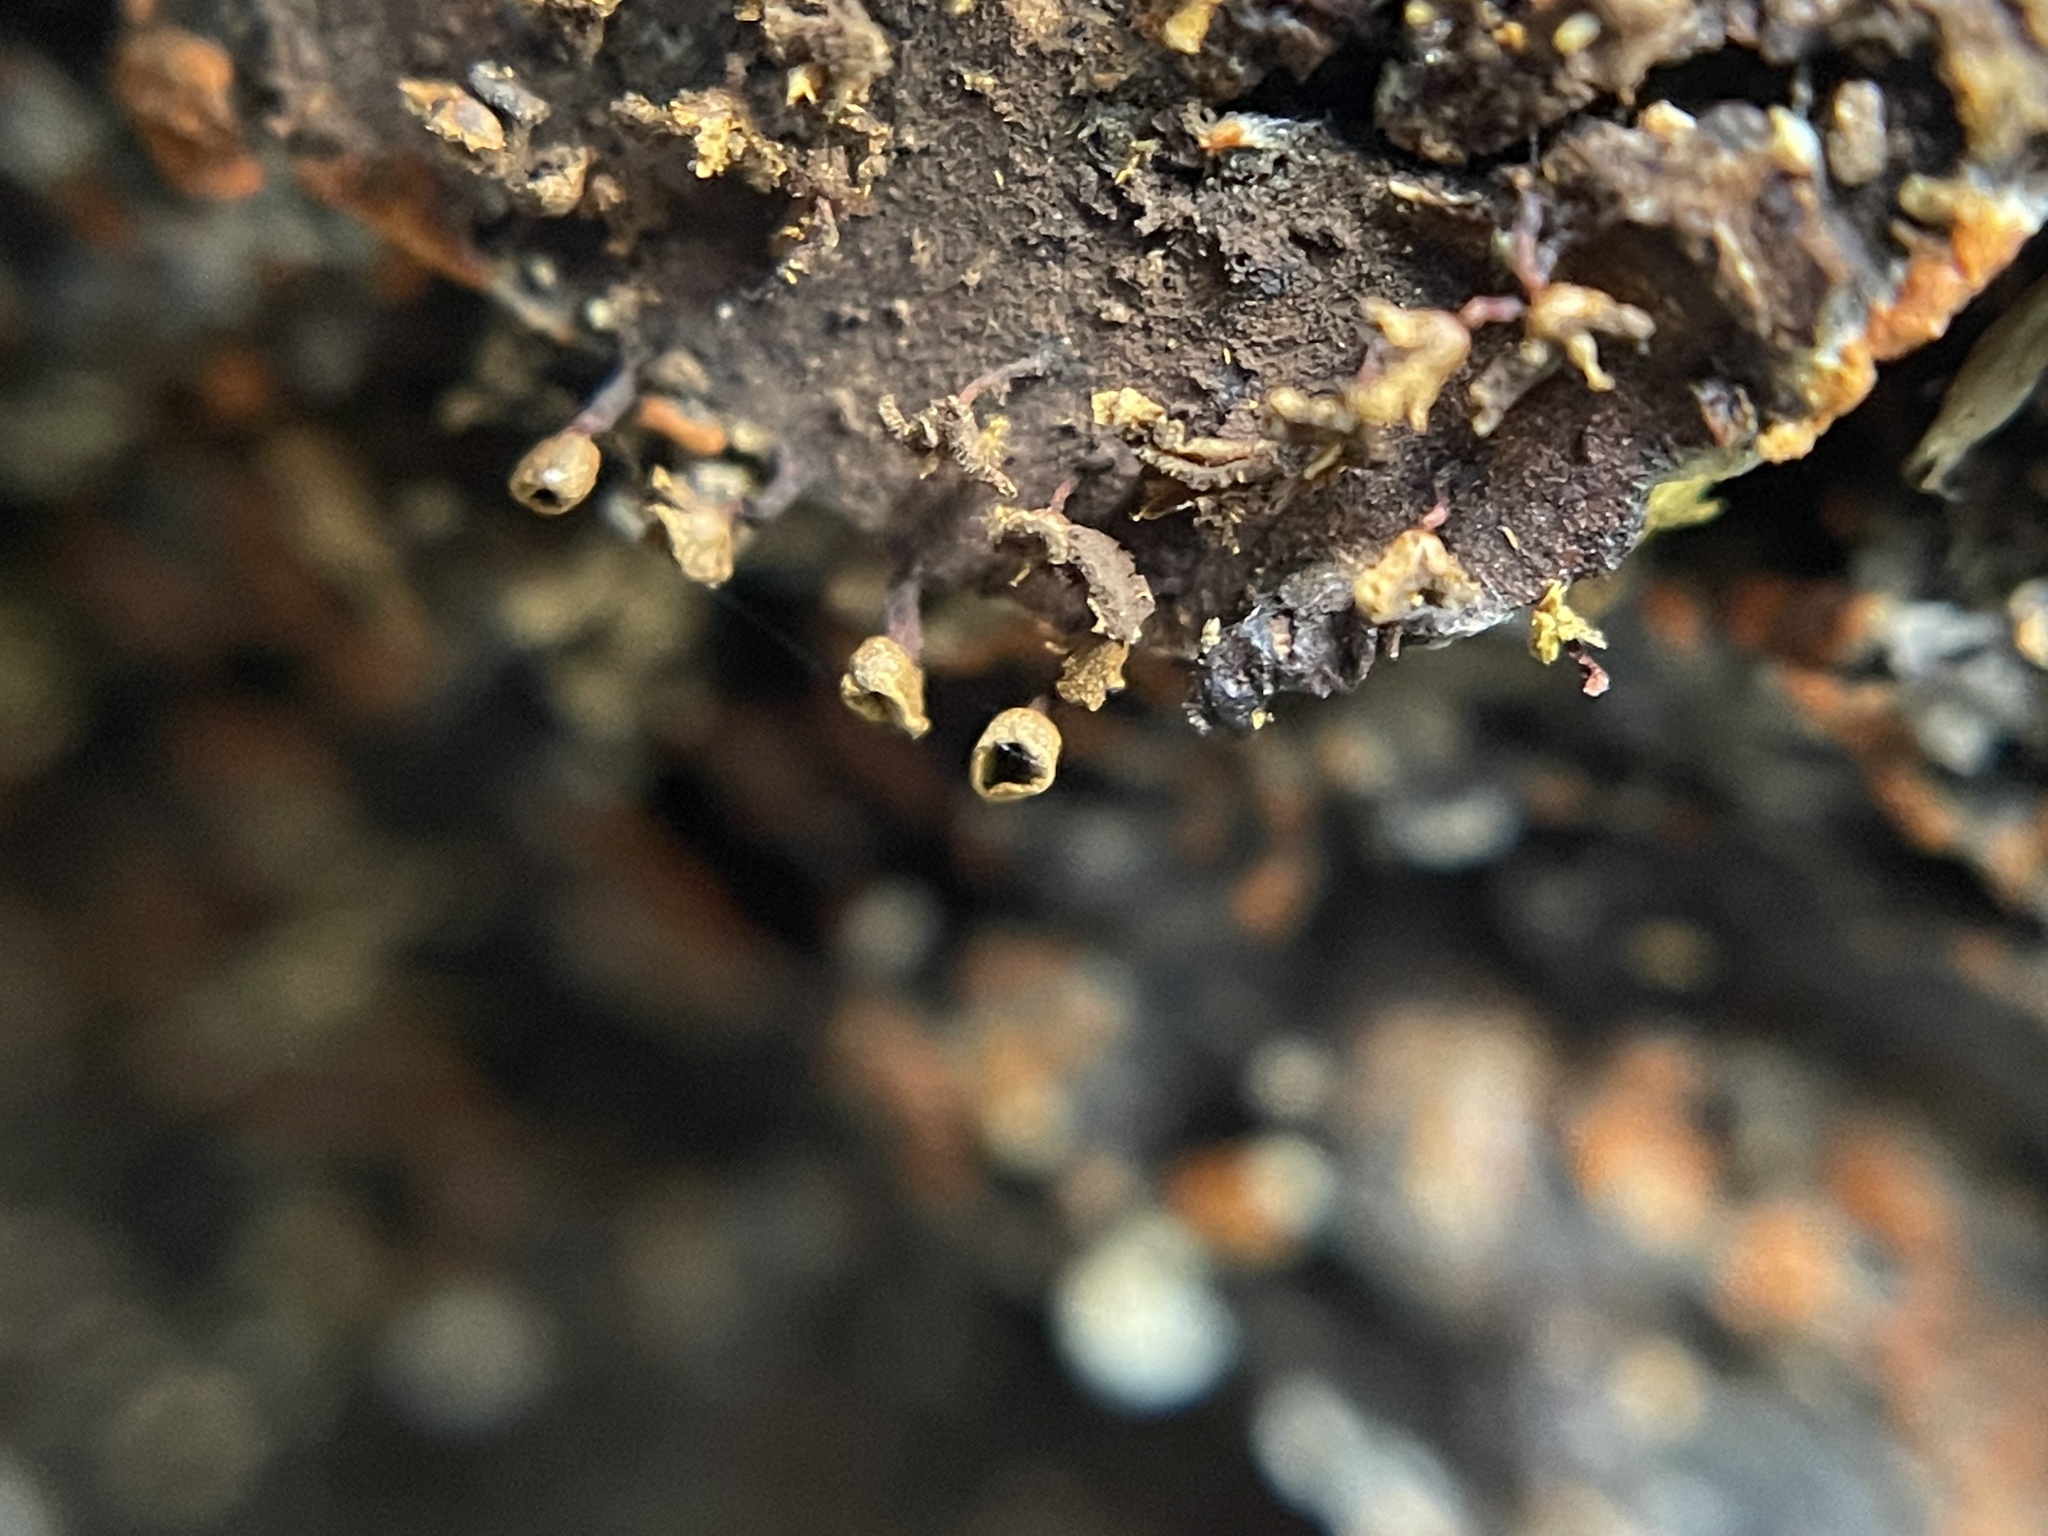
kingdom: Protozoa
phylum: Mycetozoa
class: Myxomycetes
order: Physarales
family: Physaraceae
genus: Physarella
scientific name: Physarella oblonga
